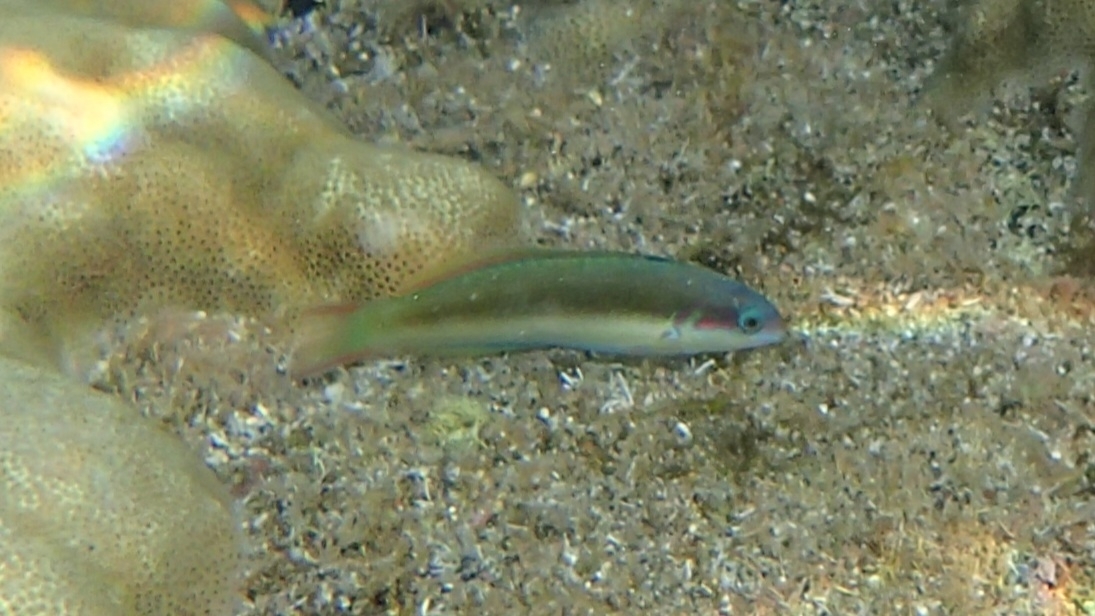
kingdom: Animalia
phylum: Chordata
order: Perciformes
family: Labridae
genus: Thalassoma
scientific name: Thalassoma genivittatum
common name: Red-cheek wrasse
